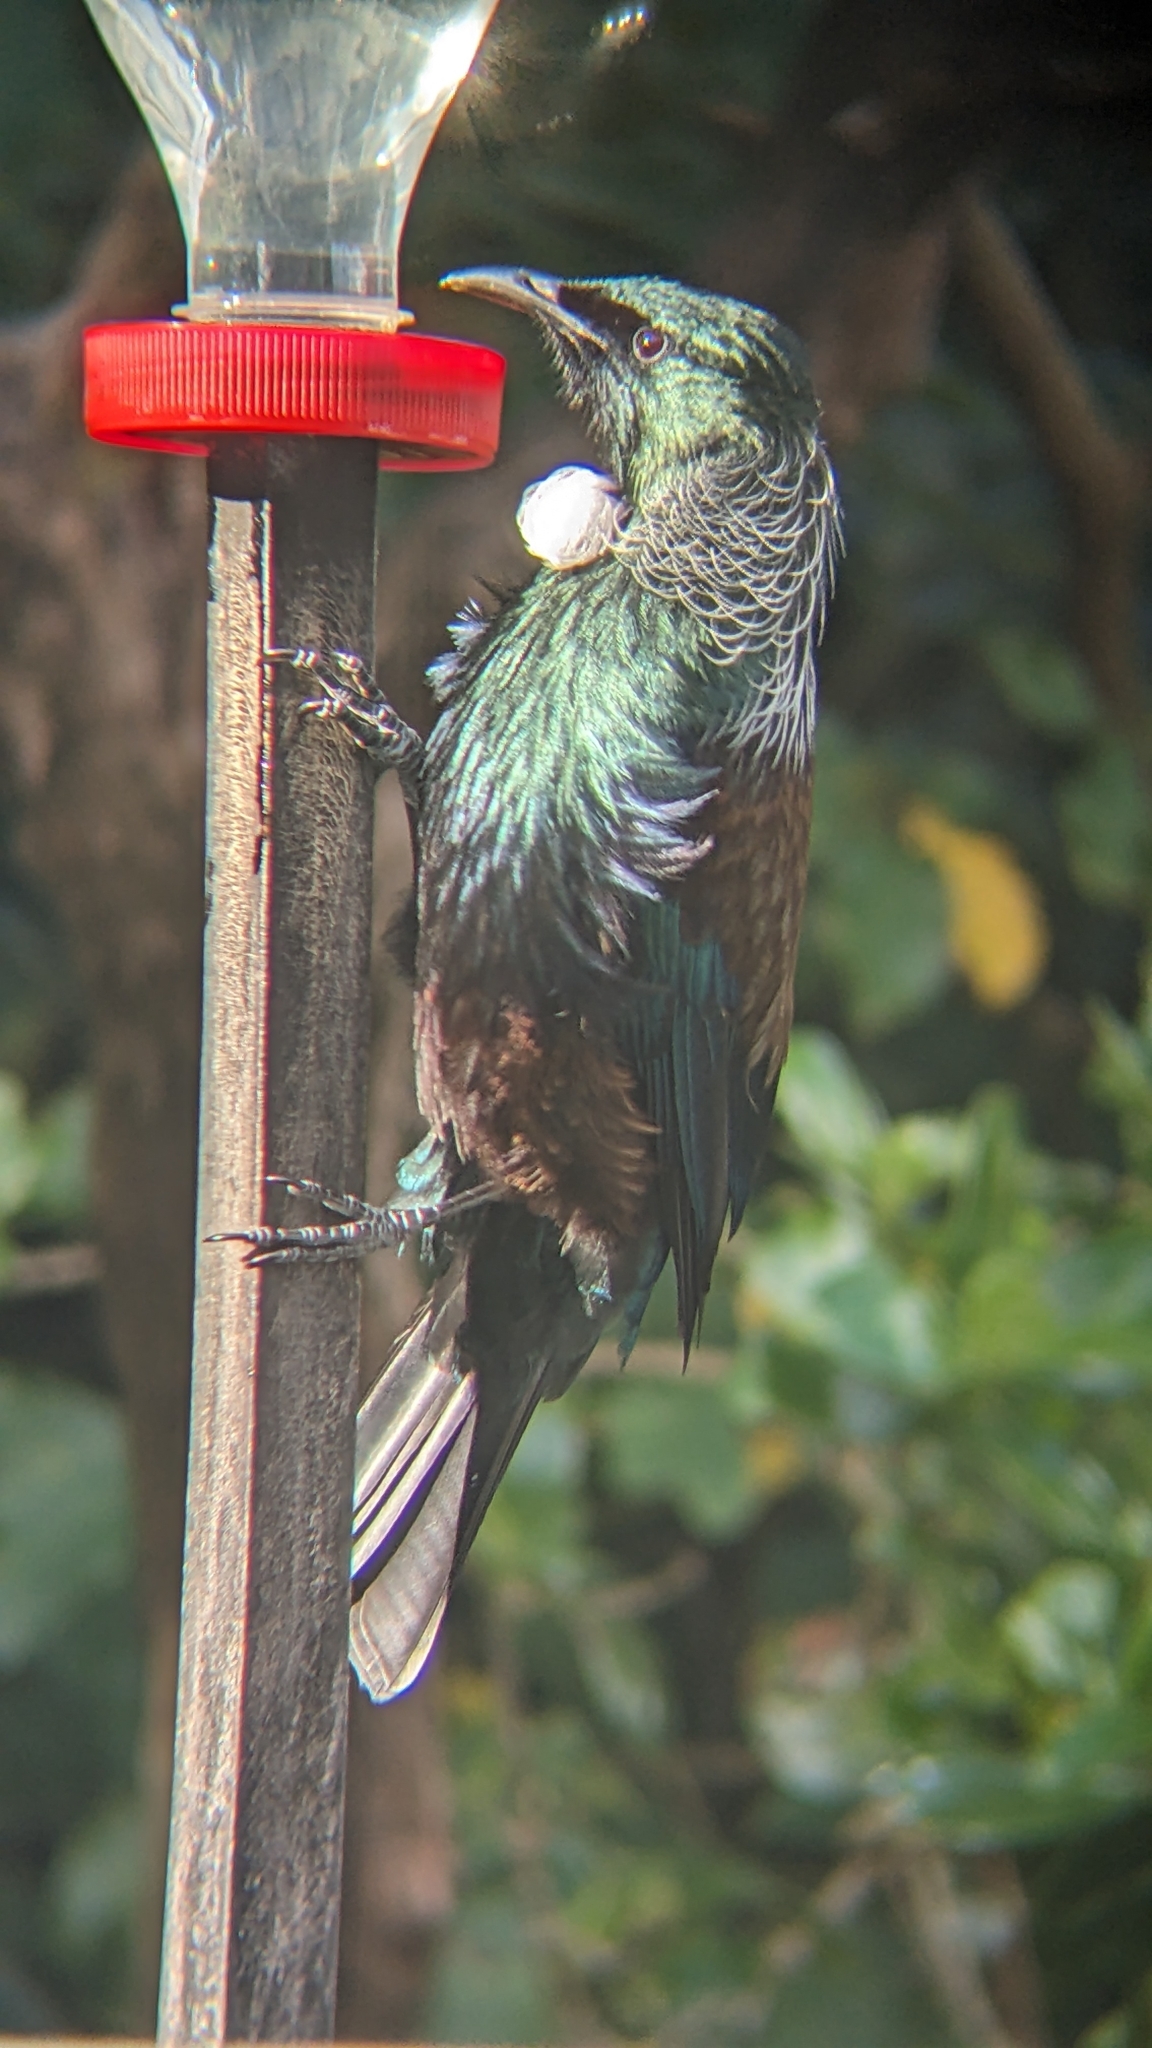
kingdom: Animalia
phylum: Chordata
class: Aves
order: Passeriformes
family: Meliphagidae
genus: Prosthemadera
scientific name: Prosthemadera novaeseelandiae
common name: Tui
